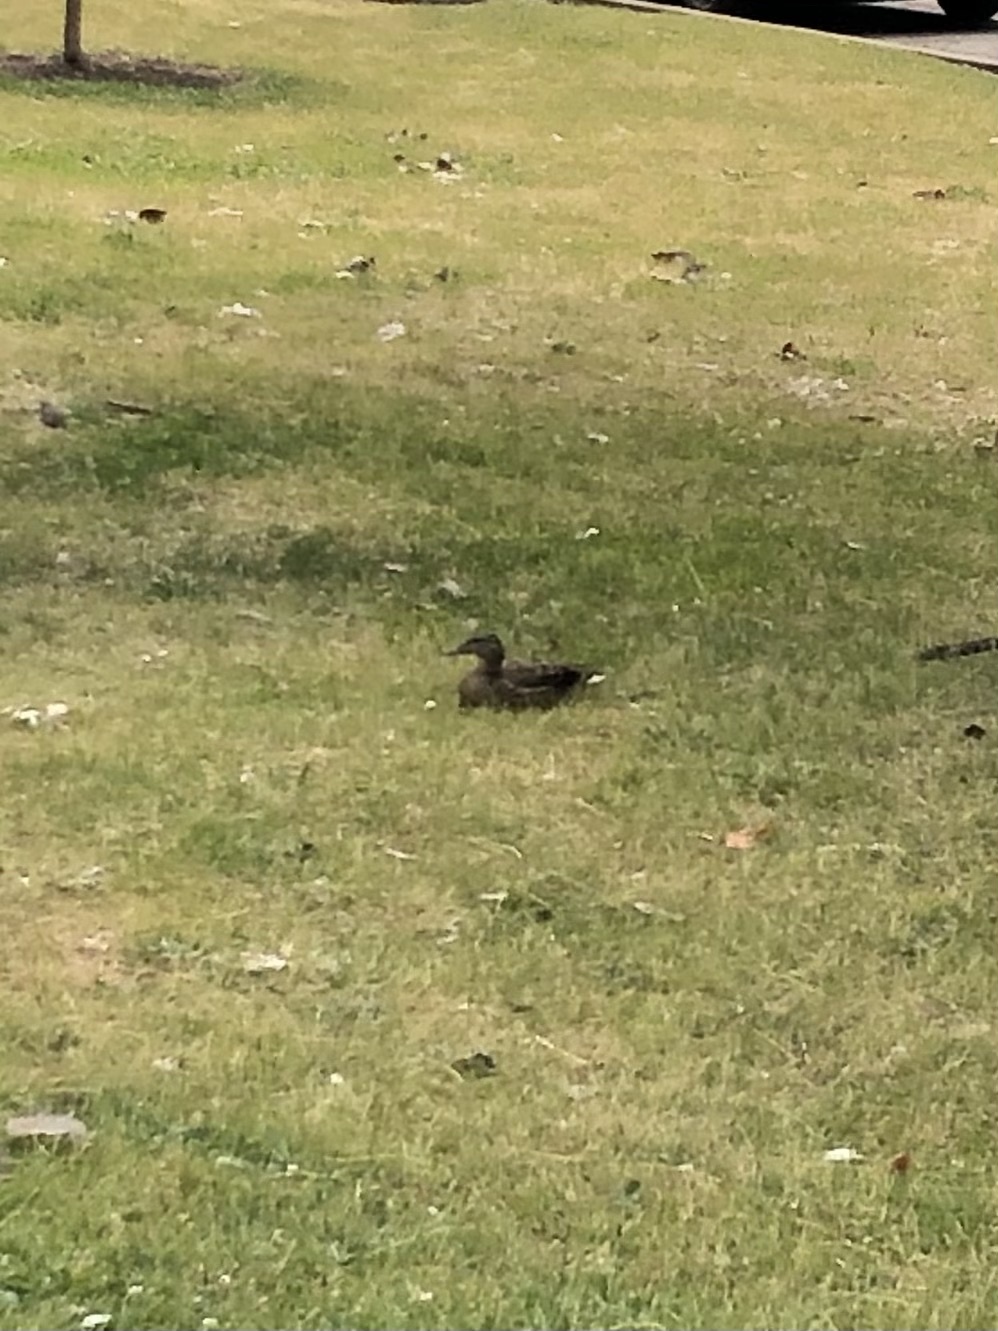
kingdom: Animalia
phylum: Chordata
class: Aves
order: Anseriformes
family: Anatidae
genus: Anas
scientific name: Anas platyrhynchos
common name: Mallard
